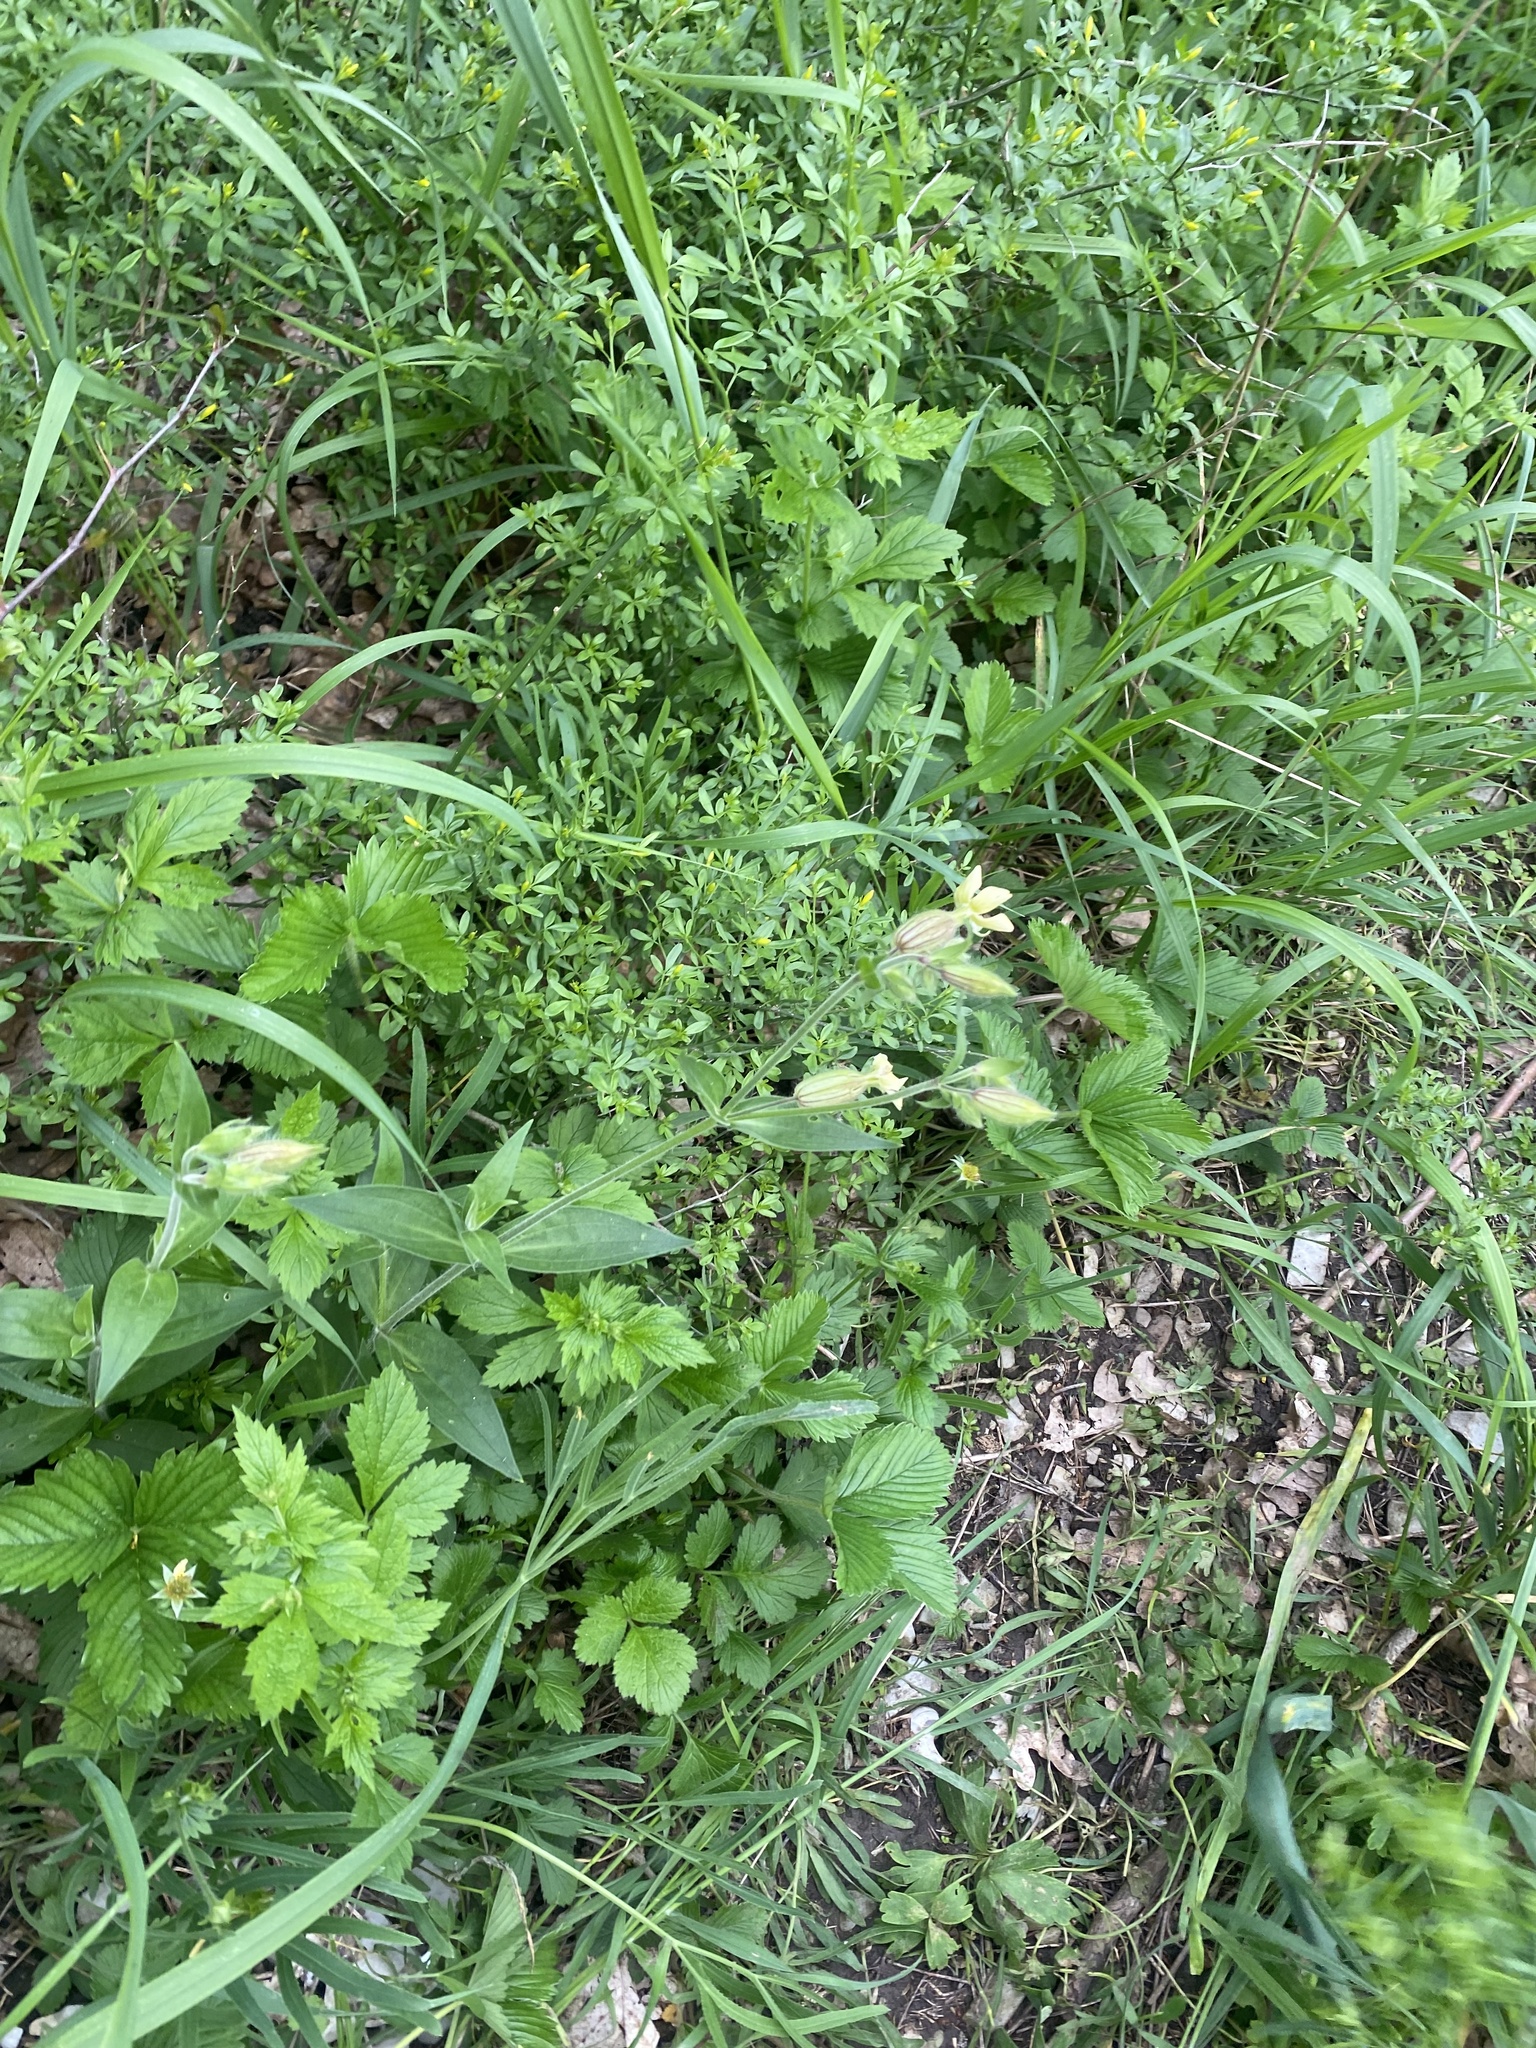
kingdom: Plantae
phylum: Tracheophyta
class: Magnoliopsida
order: Caryophyllales
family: Caryophyllaceae
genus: Silene
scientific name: Silene latifolia
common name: White campion
